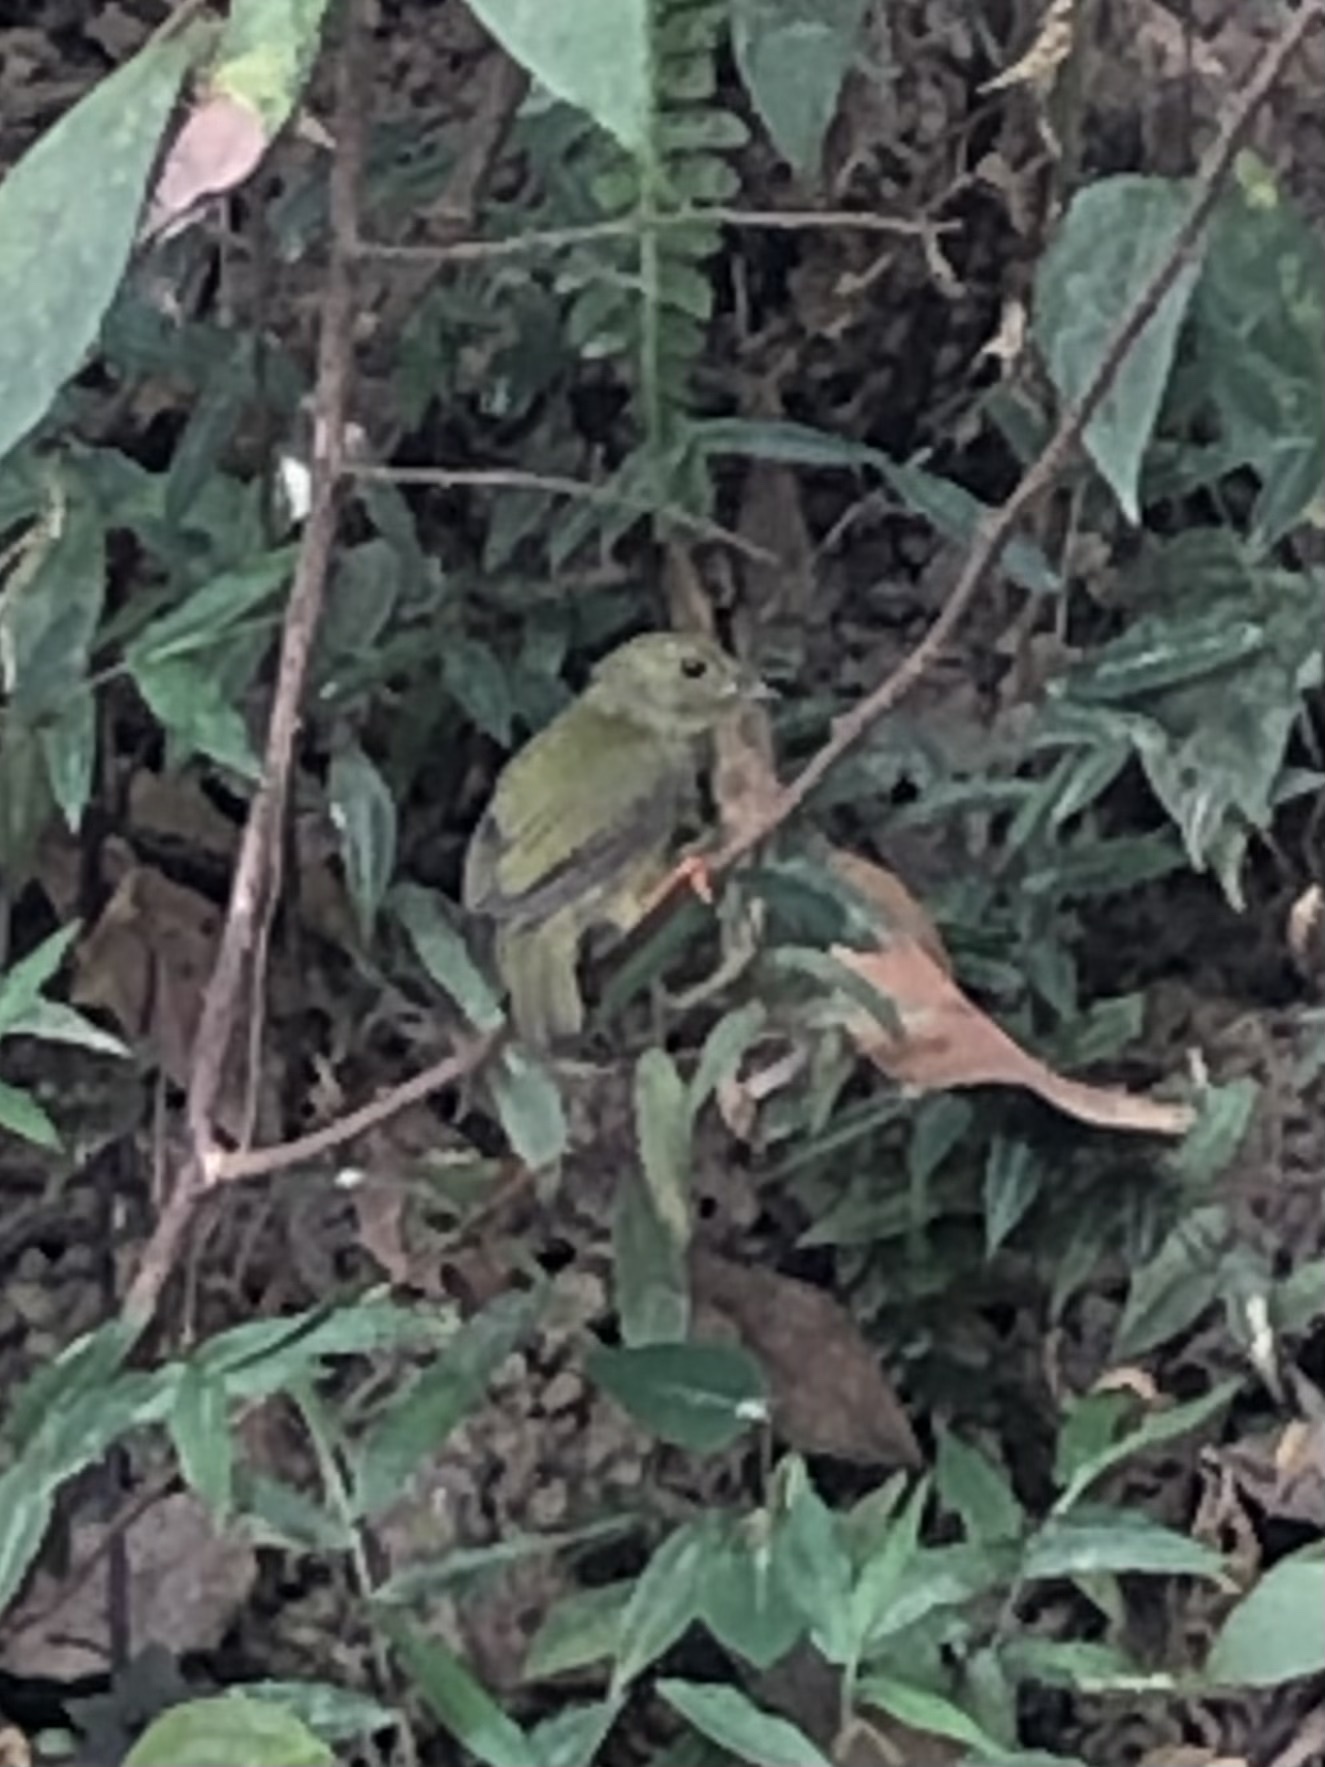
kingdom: Animalia
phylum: Chordata
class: Aves
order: Passeriformes
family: Pipridae
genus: Manacus
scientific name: Manacus manacus
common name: White-bearded manakin
